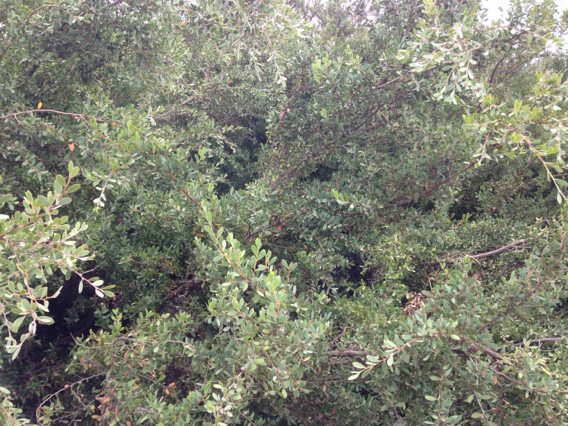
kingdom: Plantae
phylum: Tracheophyta
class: Magnoliopsida
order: Myrtales
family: Myrtaceae
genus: Leptospermum
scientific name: Leptospermum laevigatum
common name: Australian teatree
